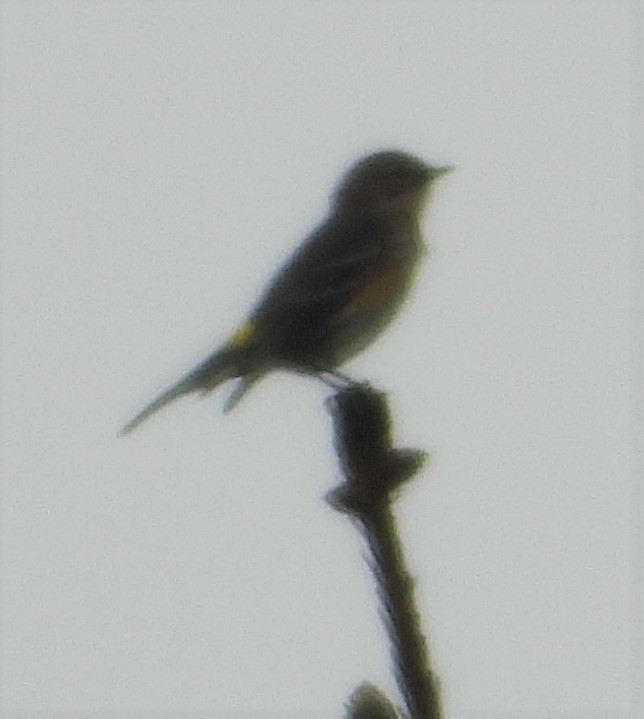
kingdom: Animalia
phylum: Chordata
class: Aves
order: Passeriformes
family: Parulidae
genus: Setophaga
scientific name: Setophaga coronata
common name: Myrtle warbler
